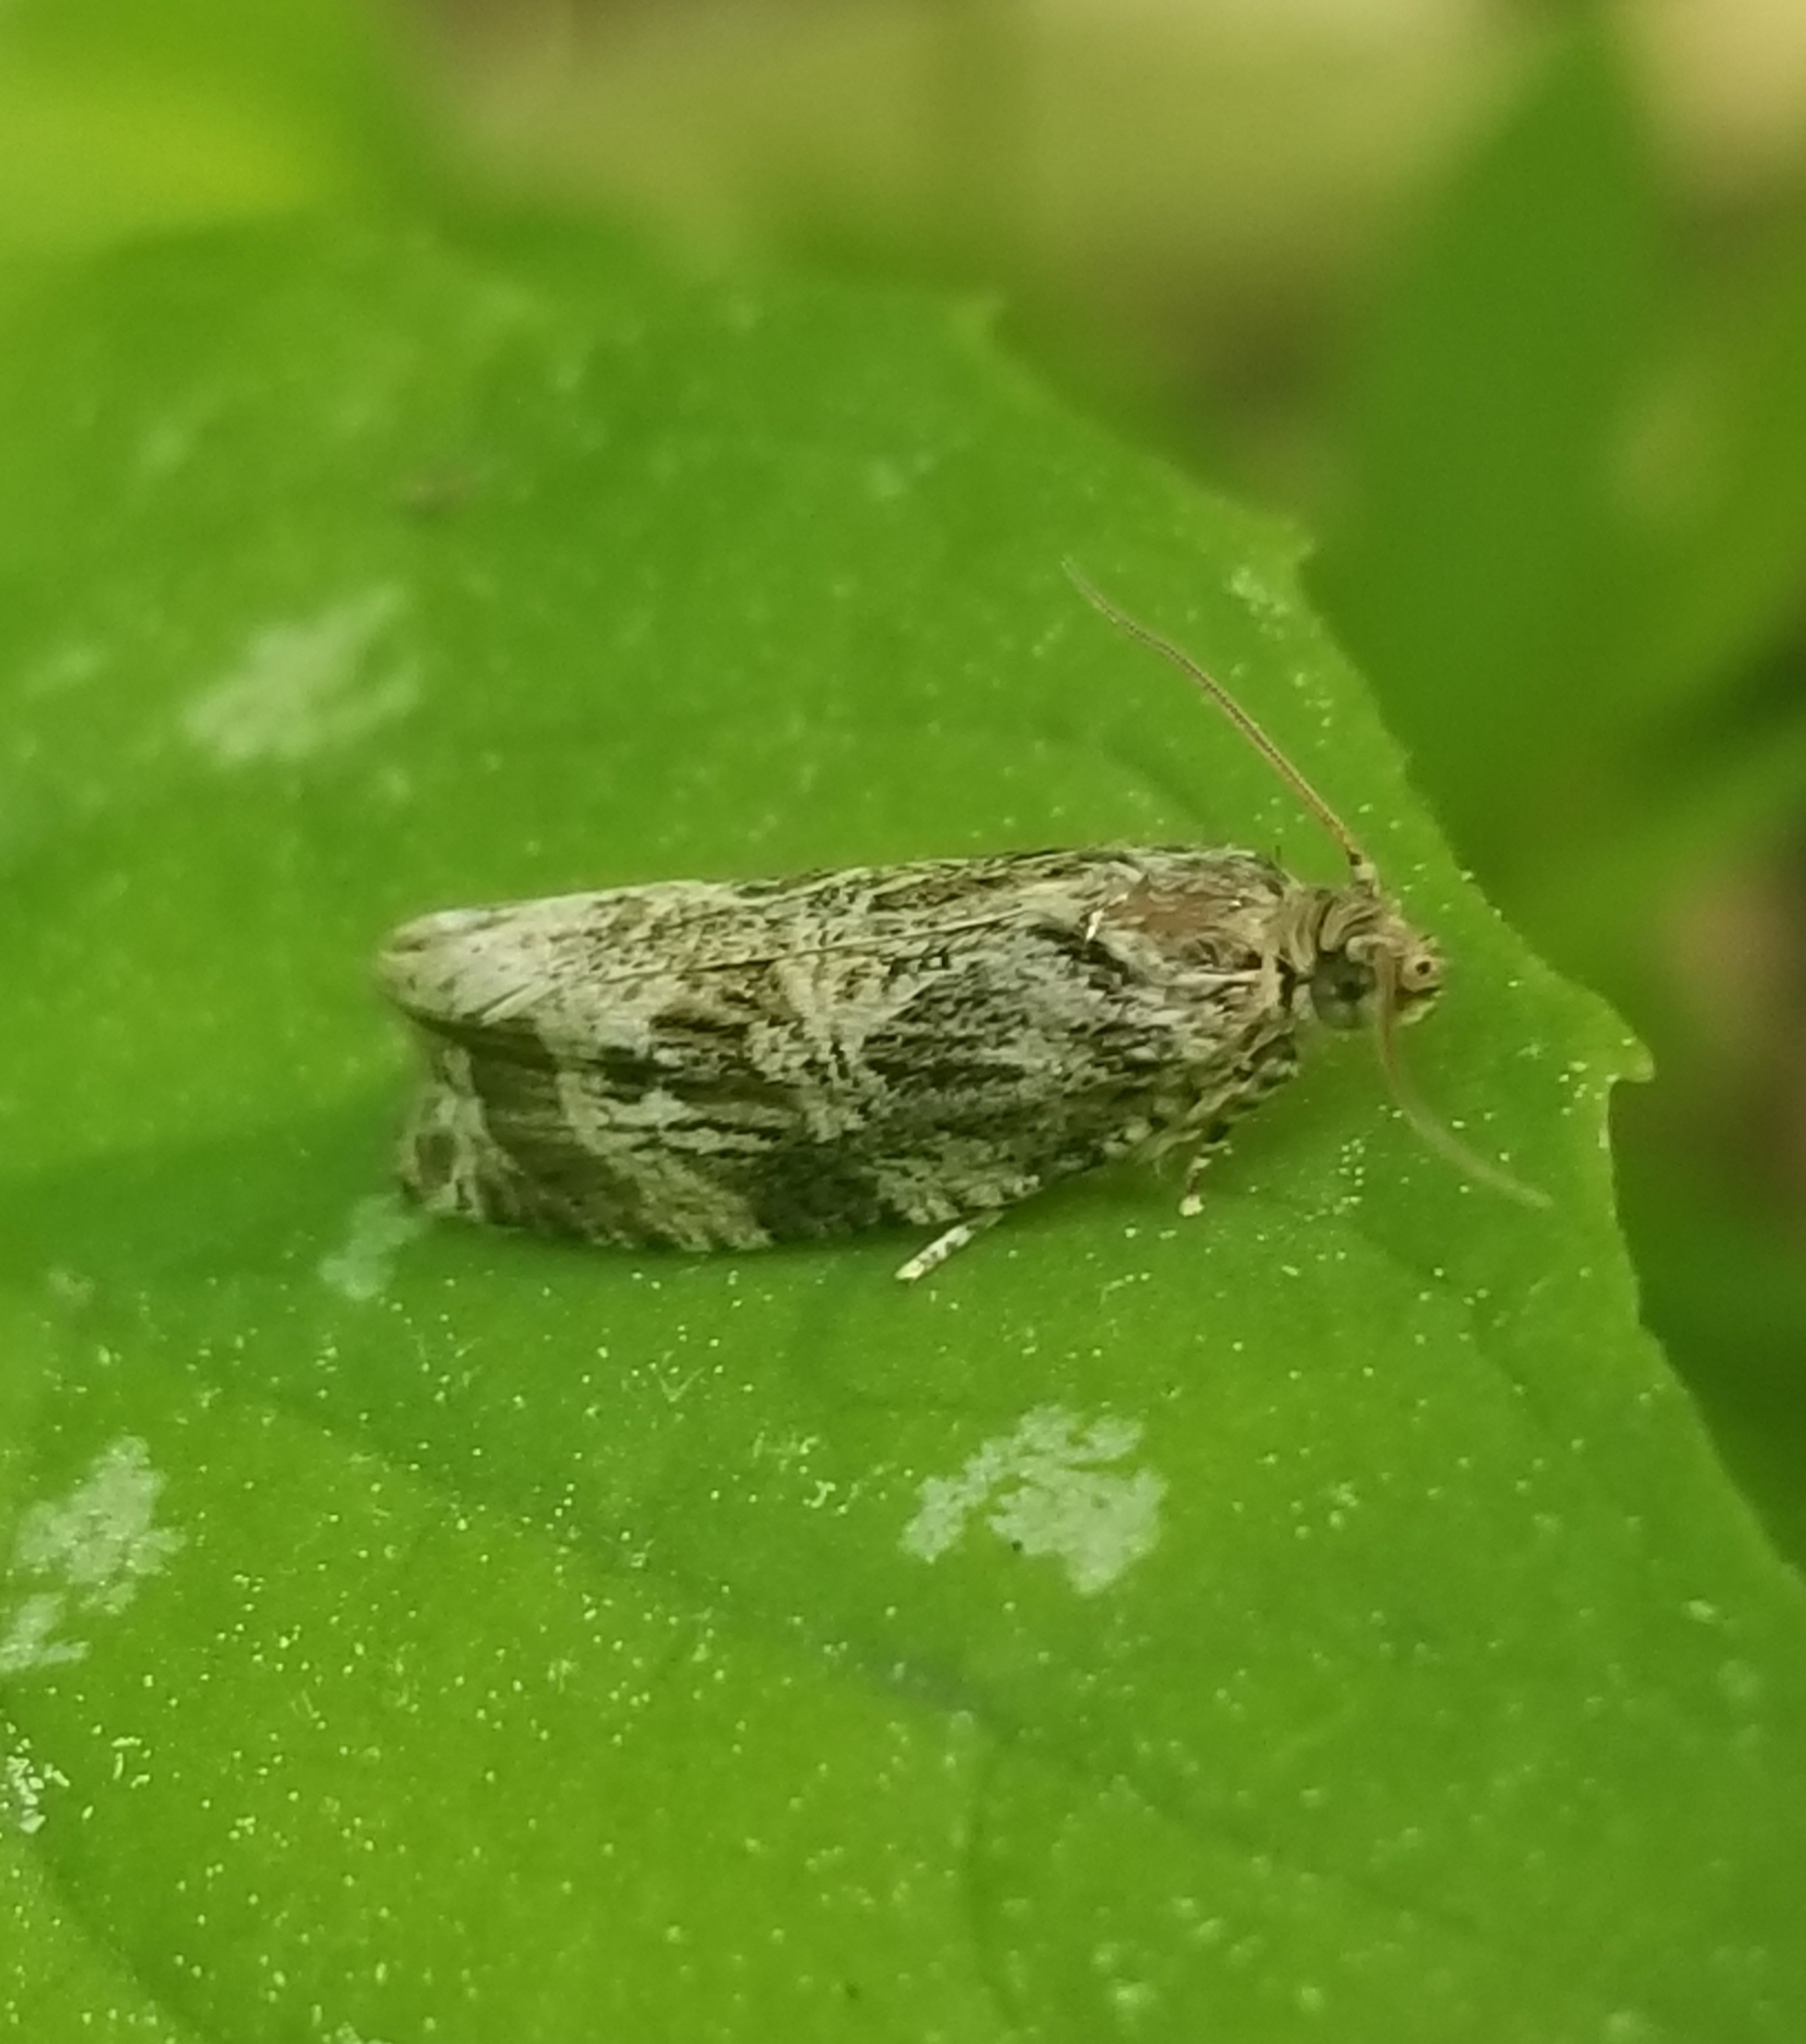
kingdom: Animalia
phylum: Arthropoda
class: Insecta
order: Lepidoptera
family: Tortricidae
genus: Celypha
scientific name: Celypha cespitana
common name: Thyme marble
